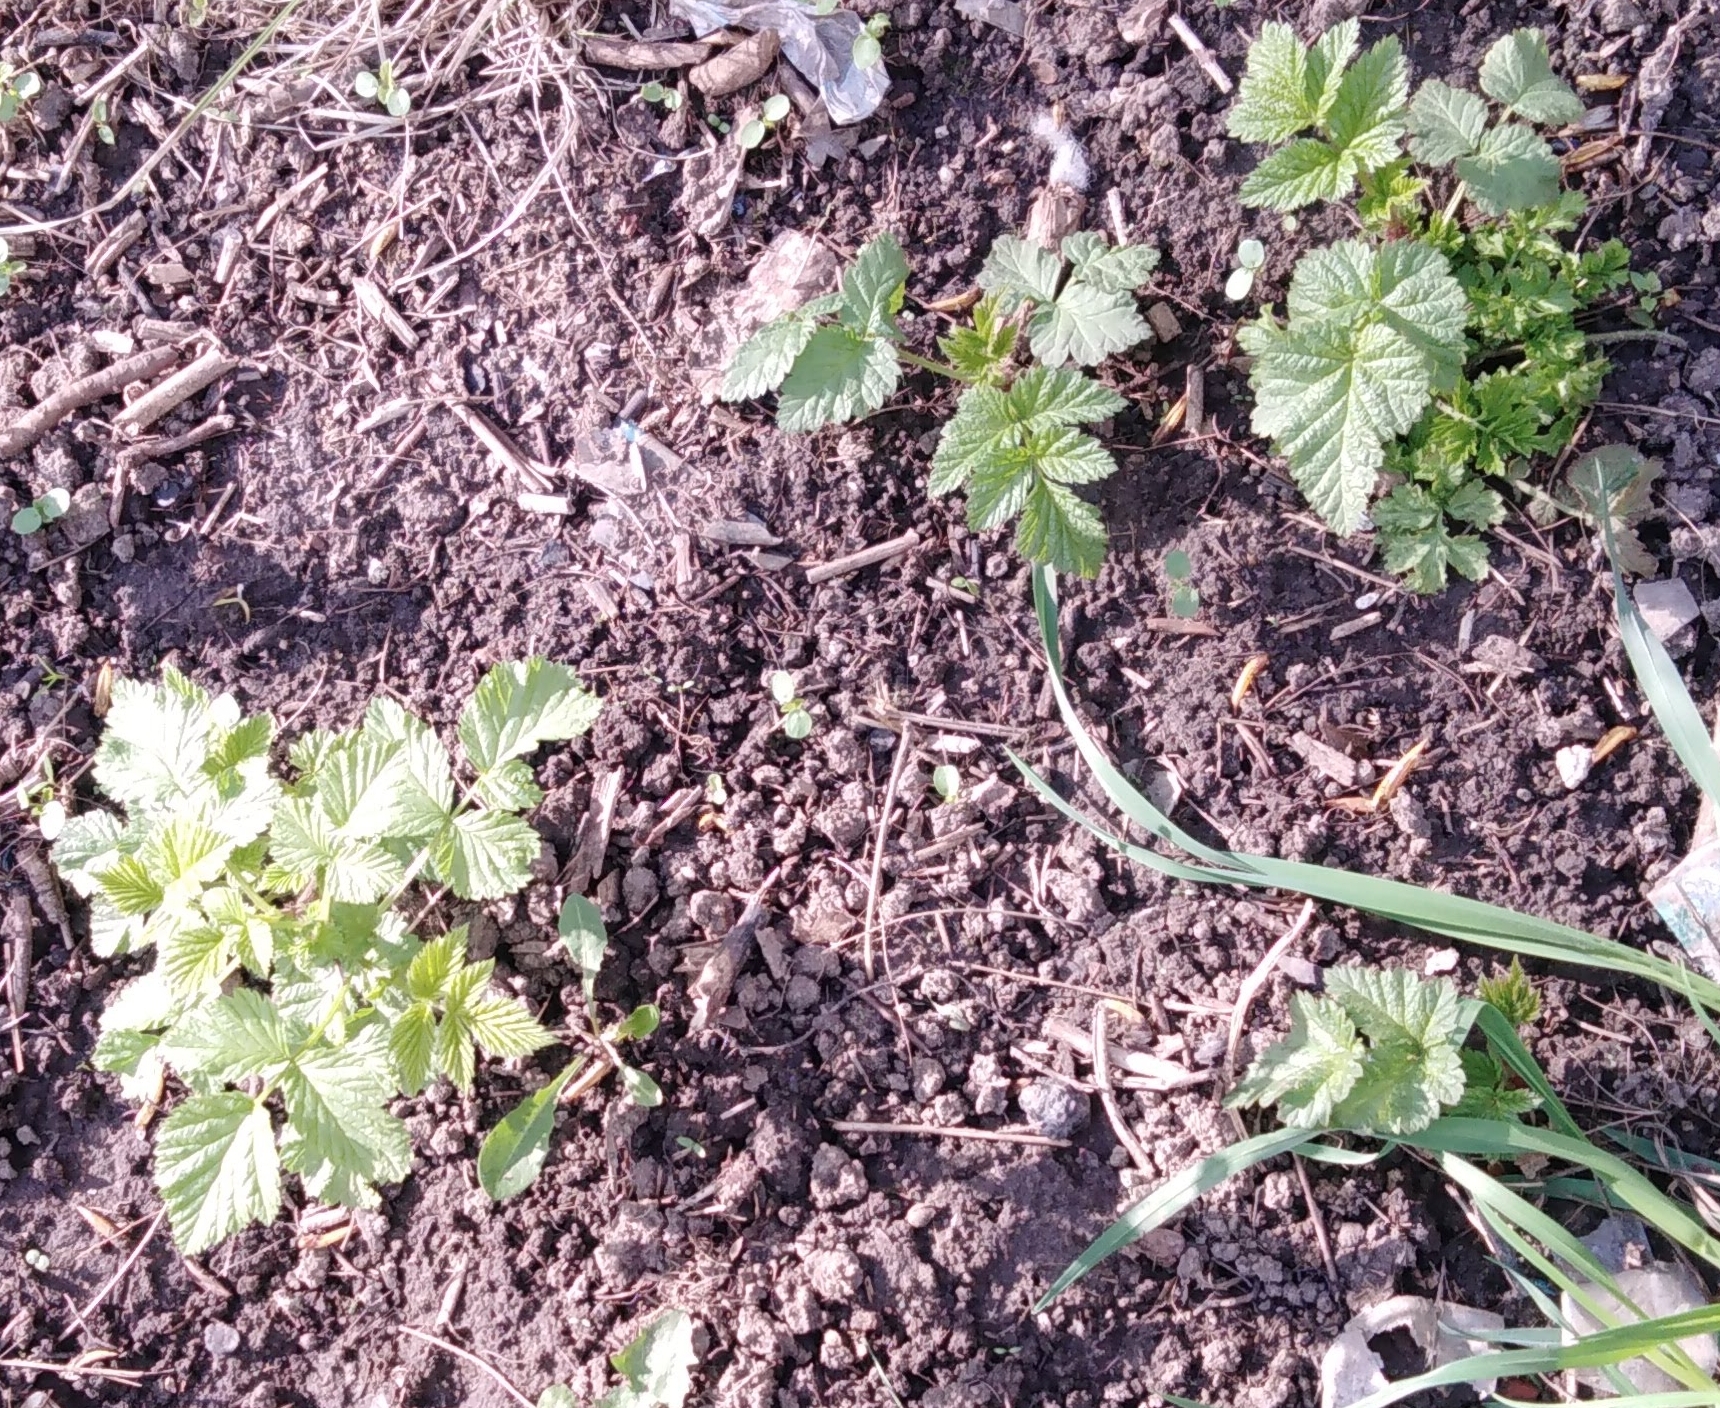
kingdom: Plantae
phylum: Tracheophyta
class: Magnoliopsida
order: Rosales
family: Rosaceae
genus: Rubus
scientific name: Rubus idaeus
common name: Raspberry
